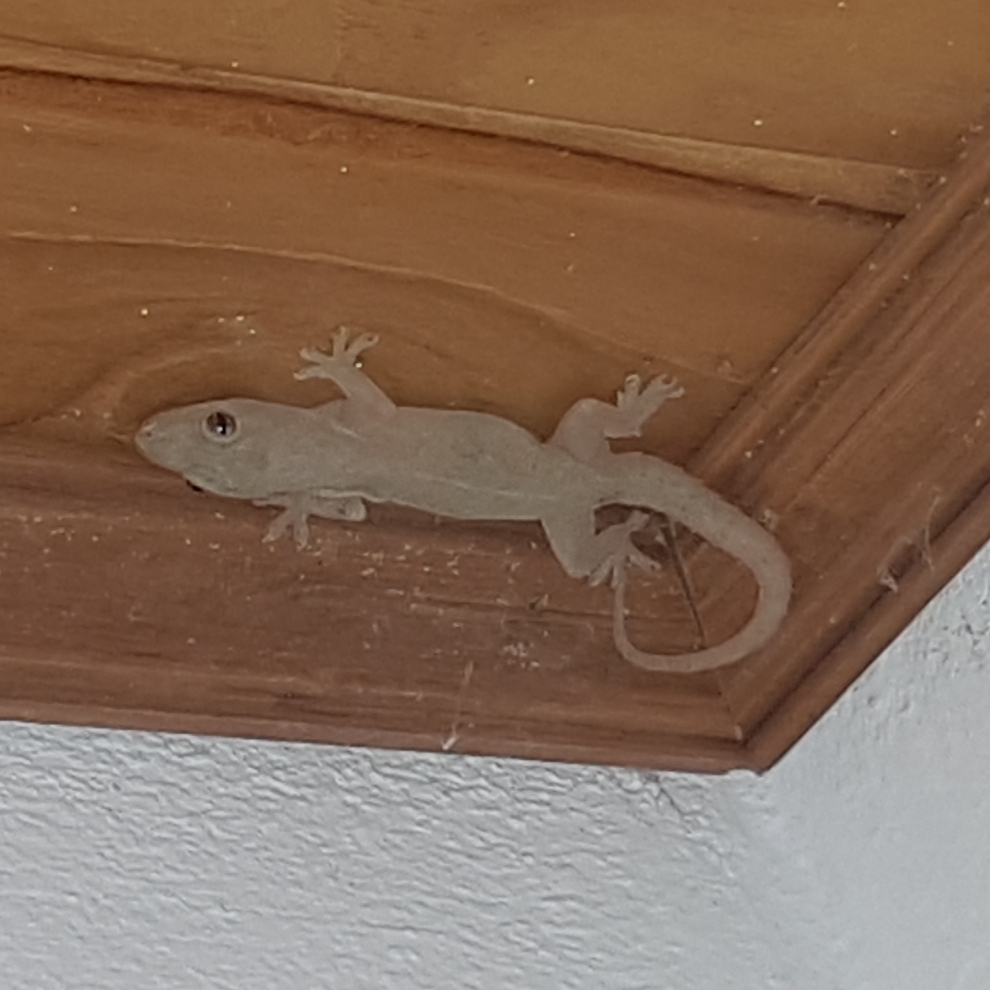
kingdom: Animalia
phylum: Chordata
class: Squamata
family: Gekkonidae
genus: Hemidactylus
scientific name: Hemidactylus frenatus
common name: Common house gecko
